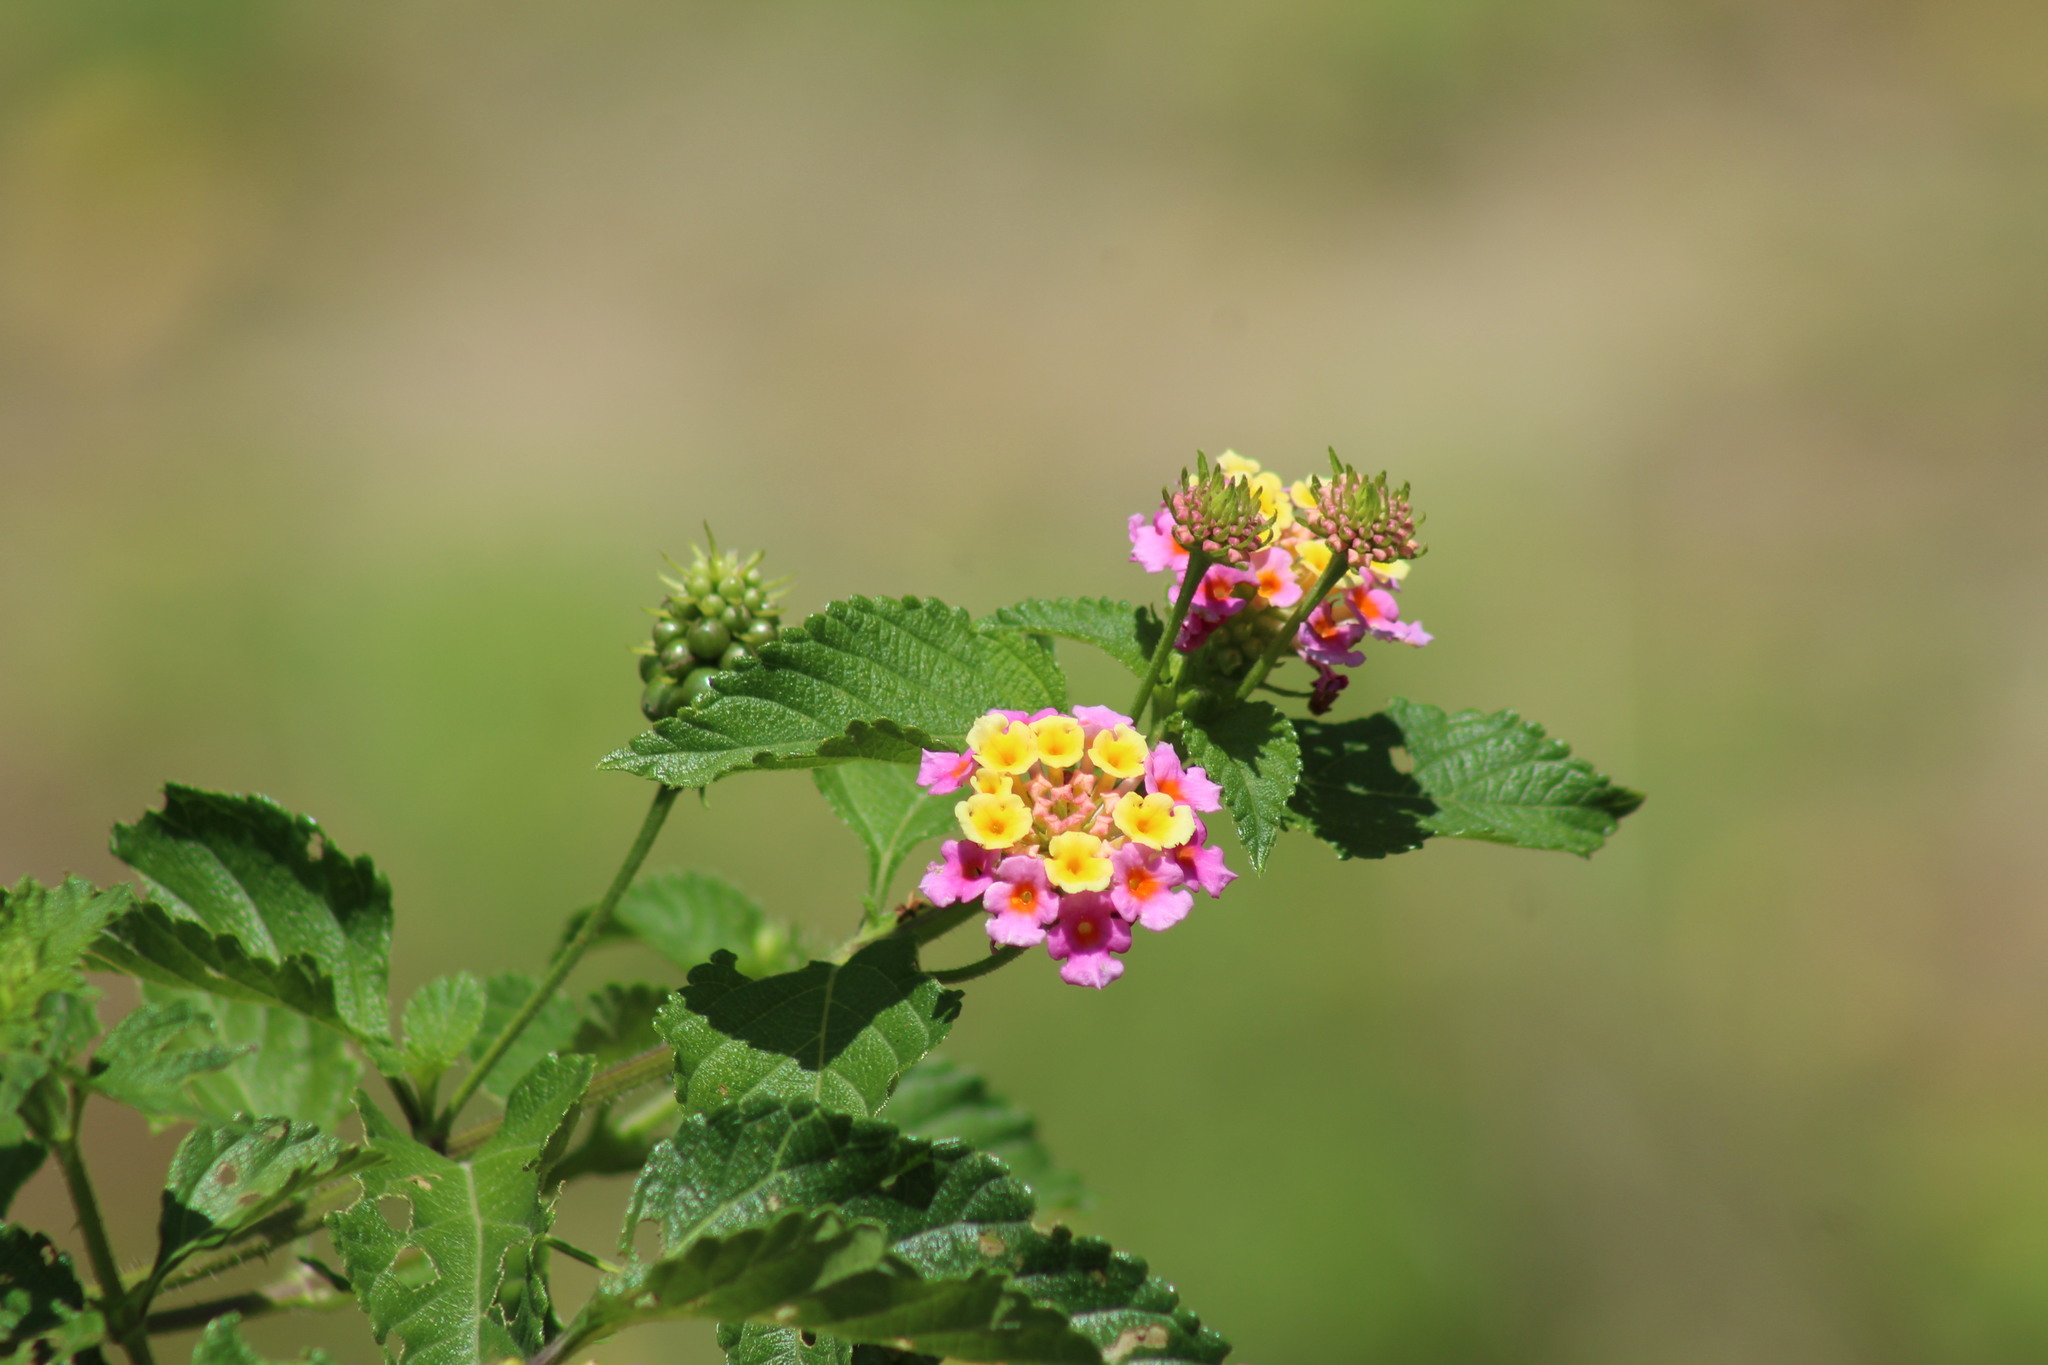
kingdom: Plantae
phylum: Tracheophyta
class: Magnoliopsida
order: Lamiales
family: Verbenaceae
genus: Lantana
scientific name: Lantana camara
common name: Lantana
